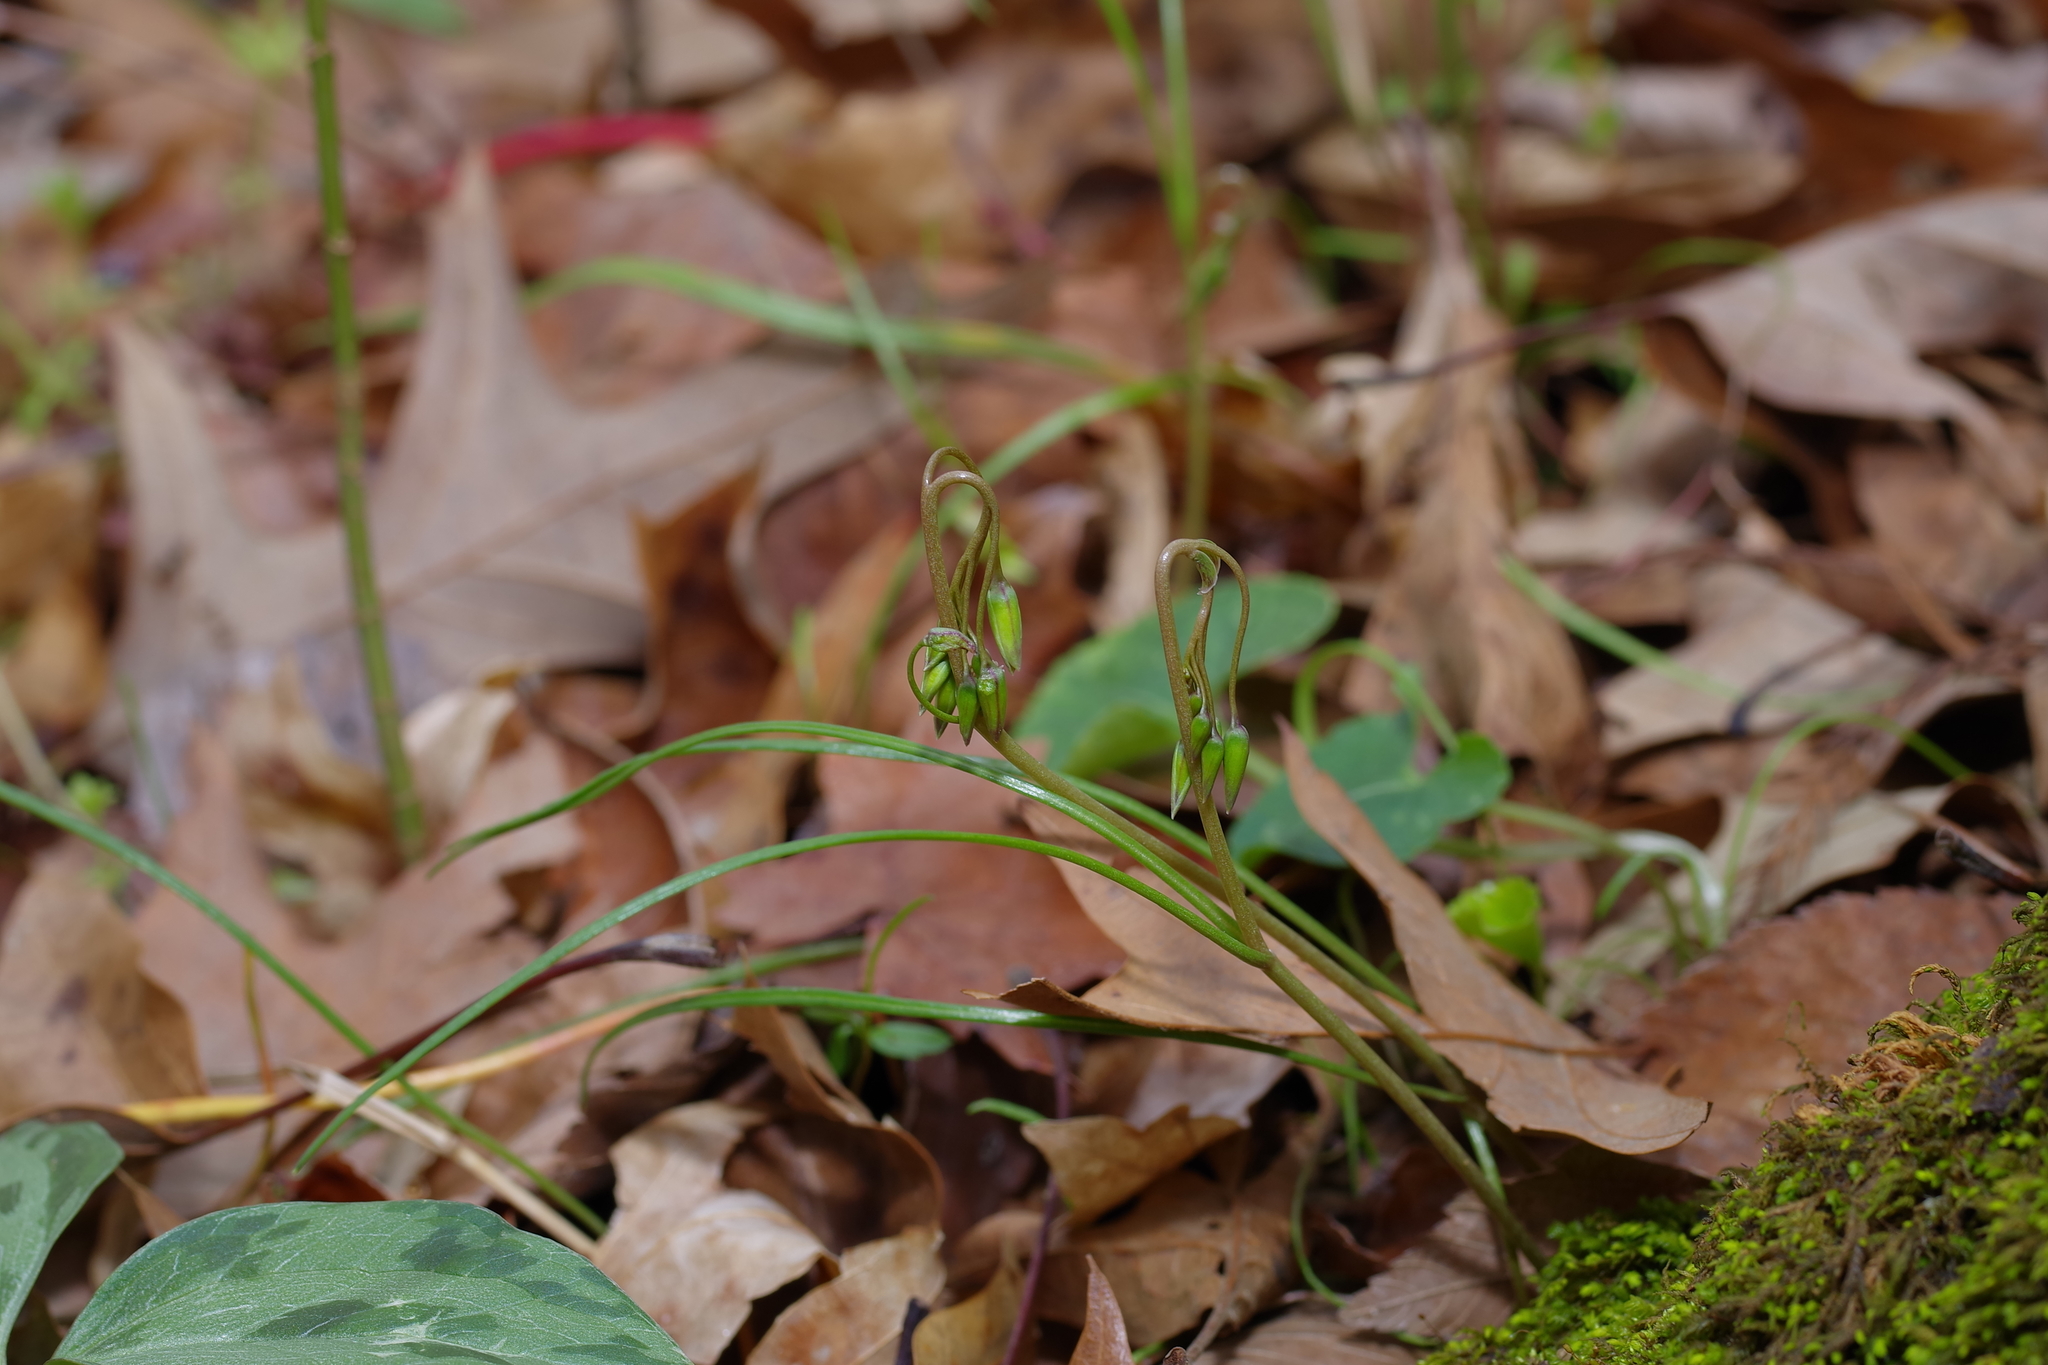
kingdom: Plantae
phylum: Tracheophyta
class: Magnoliopsida
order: Caryophyllales
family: Montiaceae
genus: Claytonia
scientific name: Claytonia virginica
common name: Virginia springbeauty
